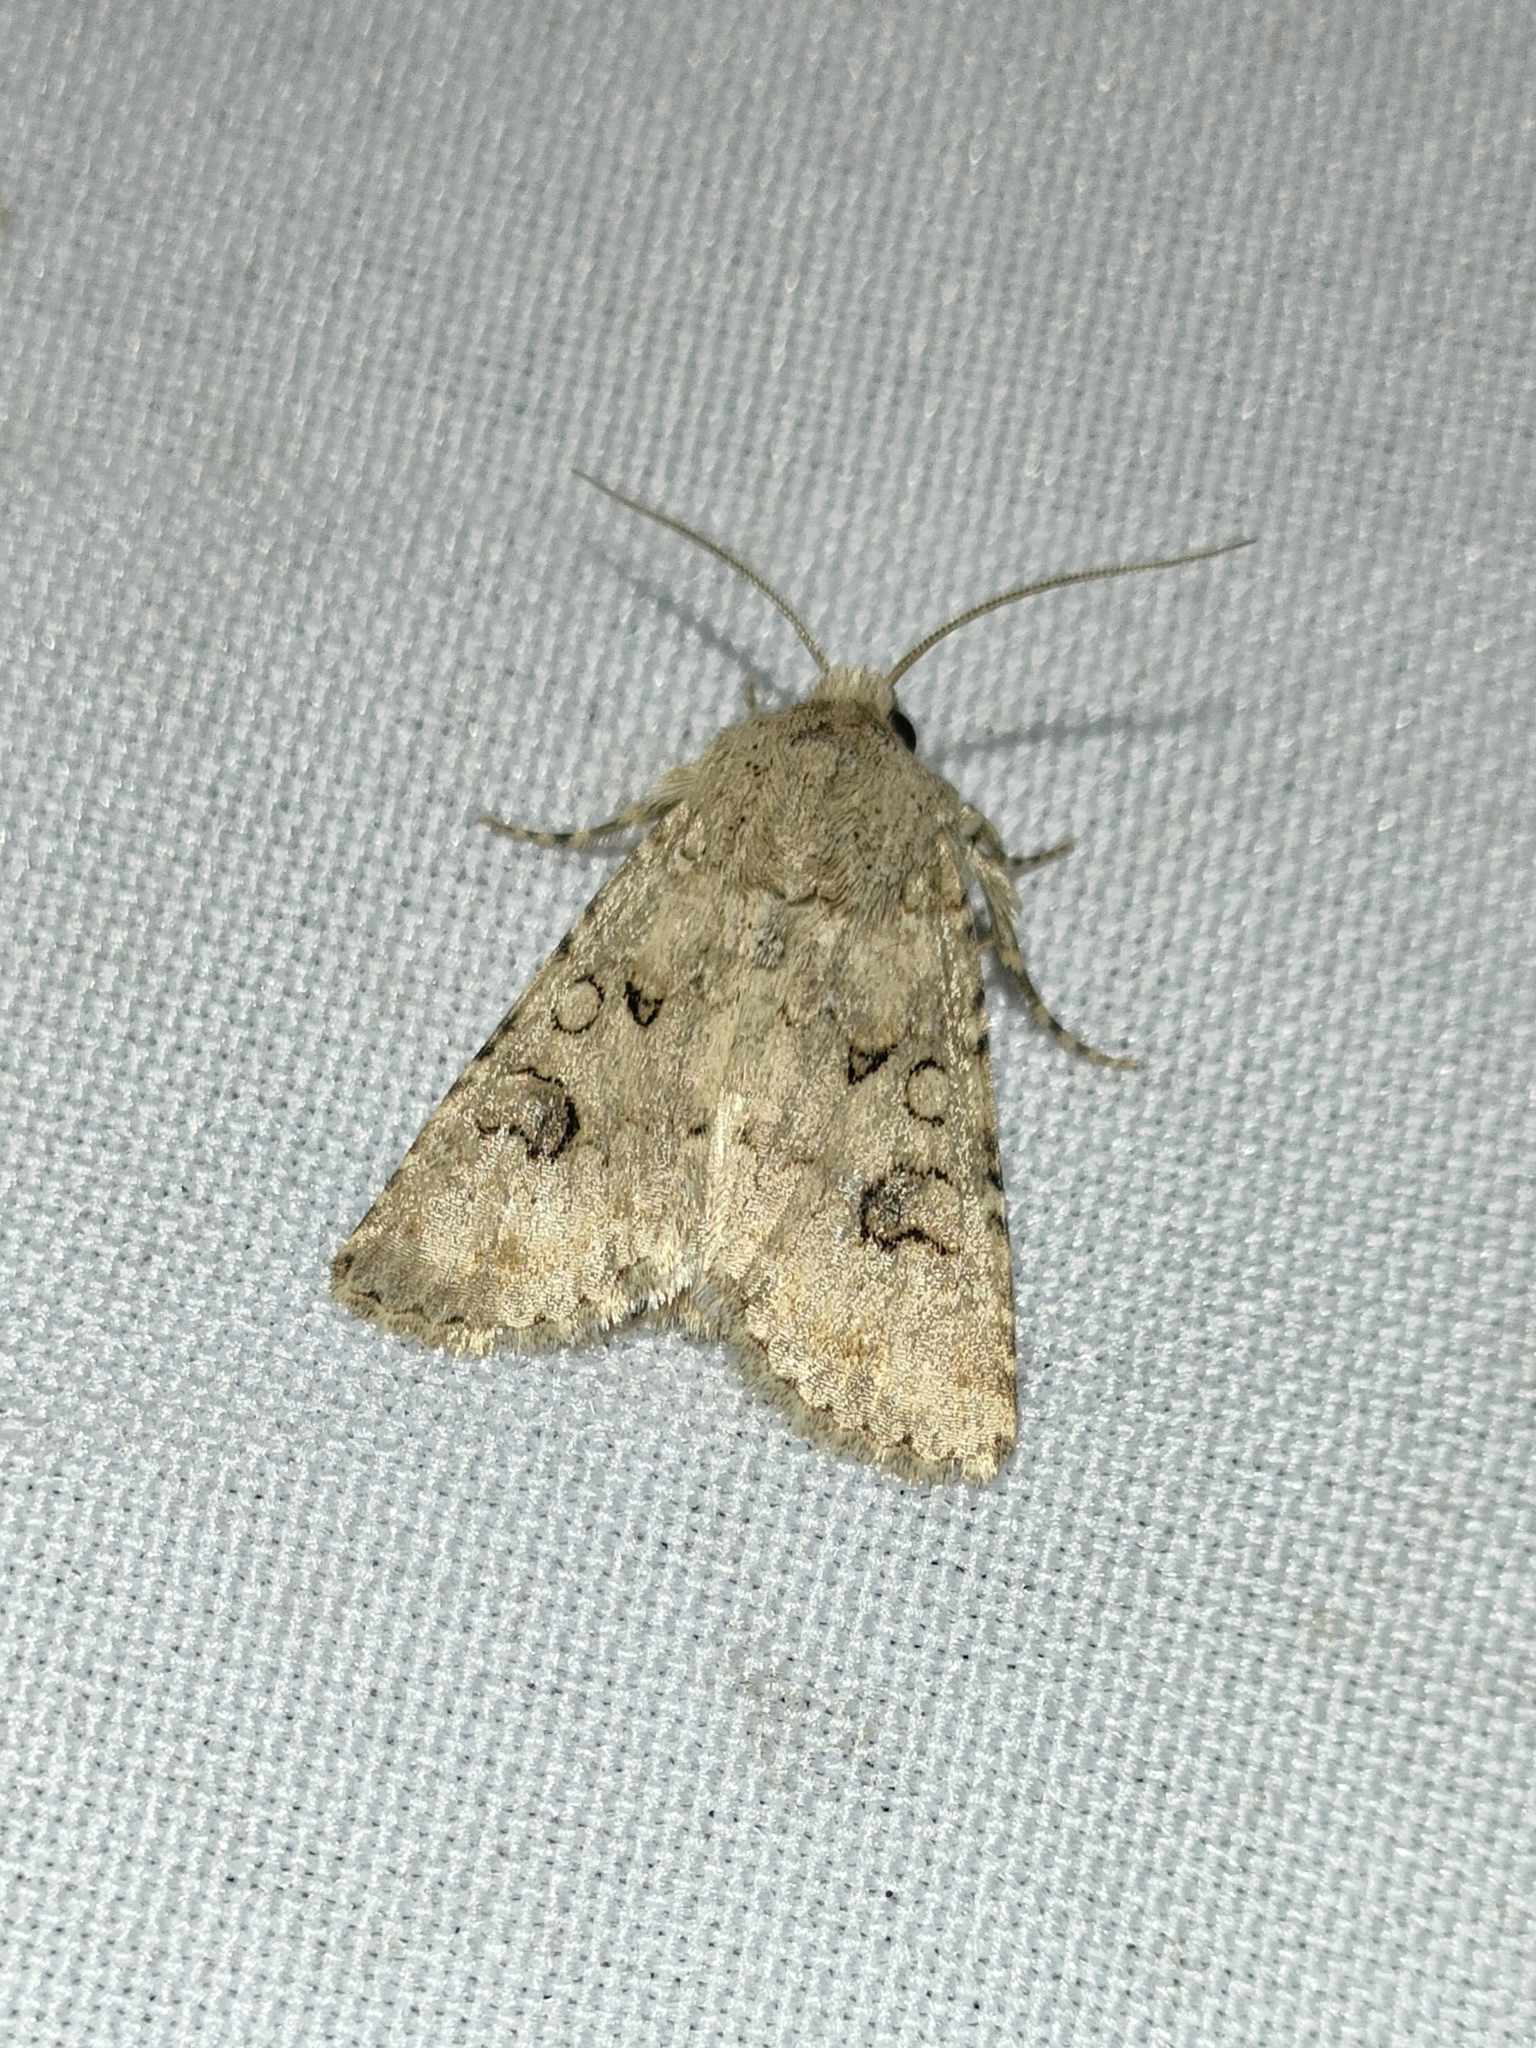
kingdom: Animalia
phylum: Arthropoda
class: Insecta
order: Lepidoptera
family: Noctuidae
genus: Anarta
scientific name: Anarta sodae
